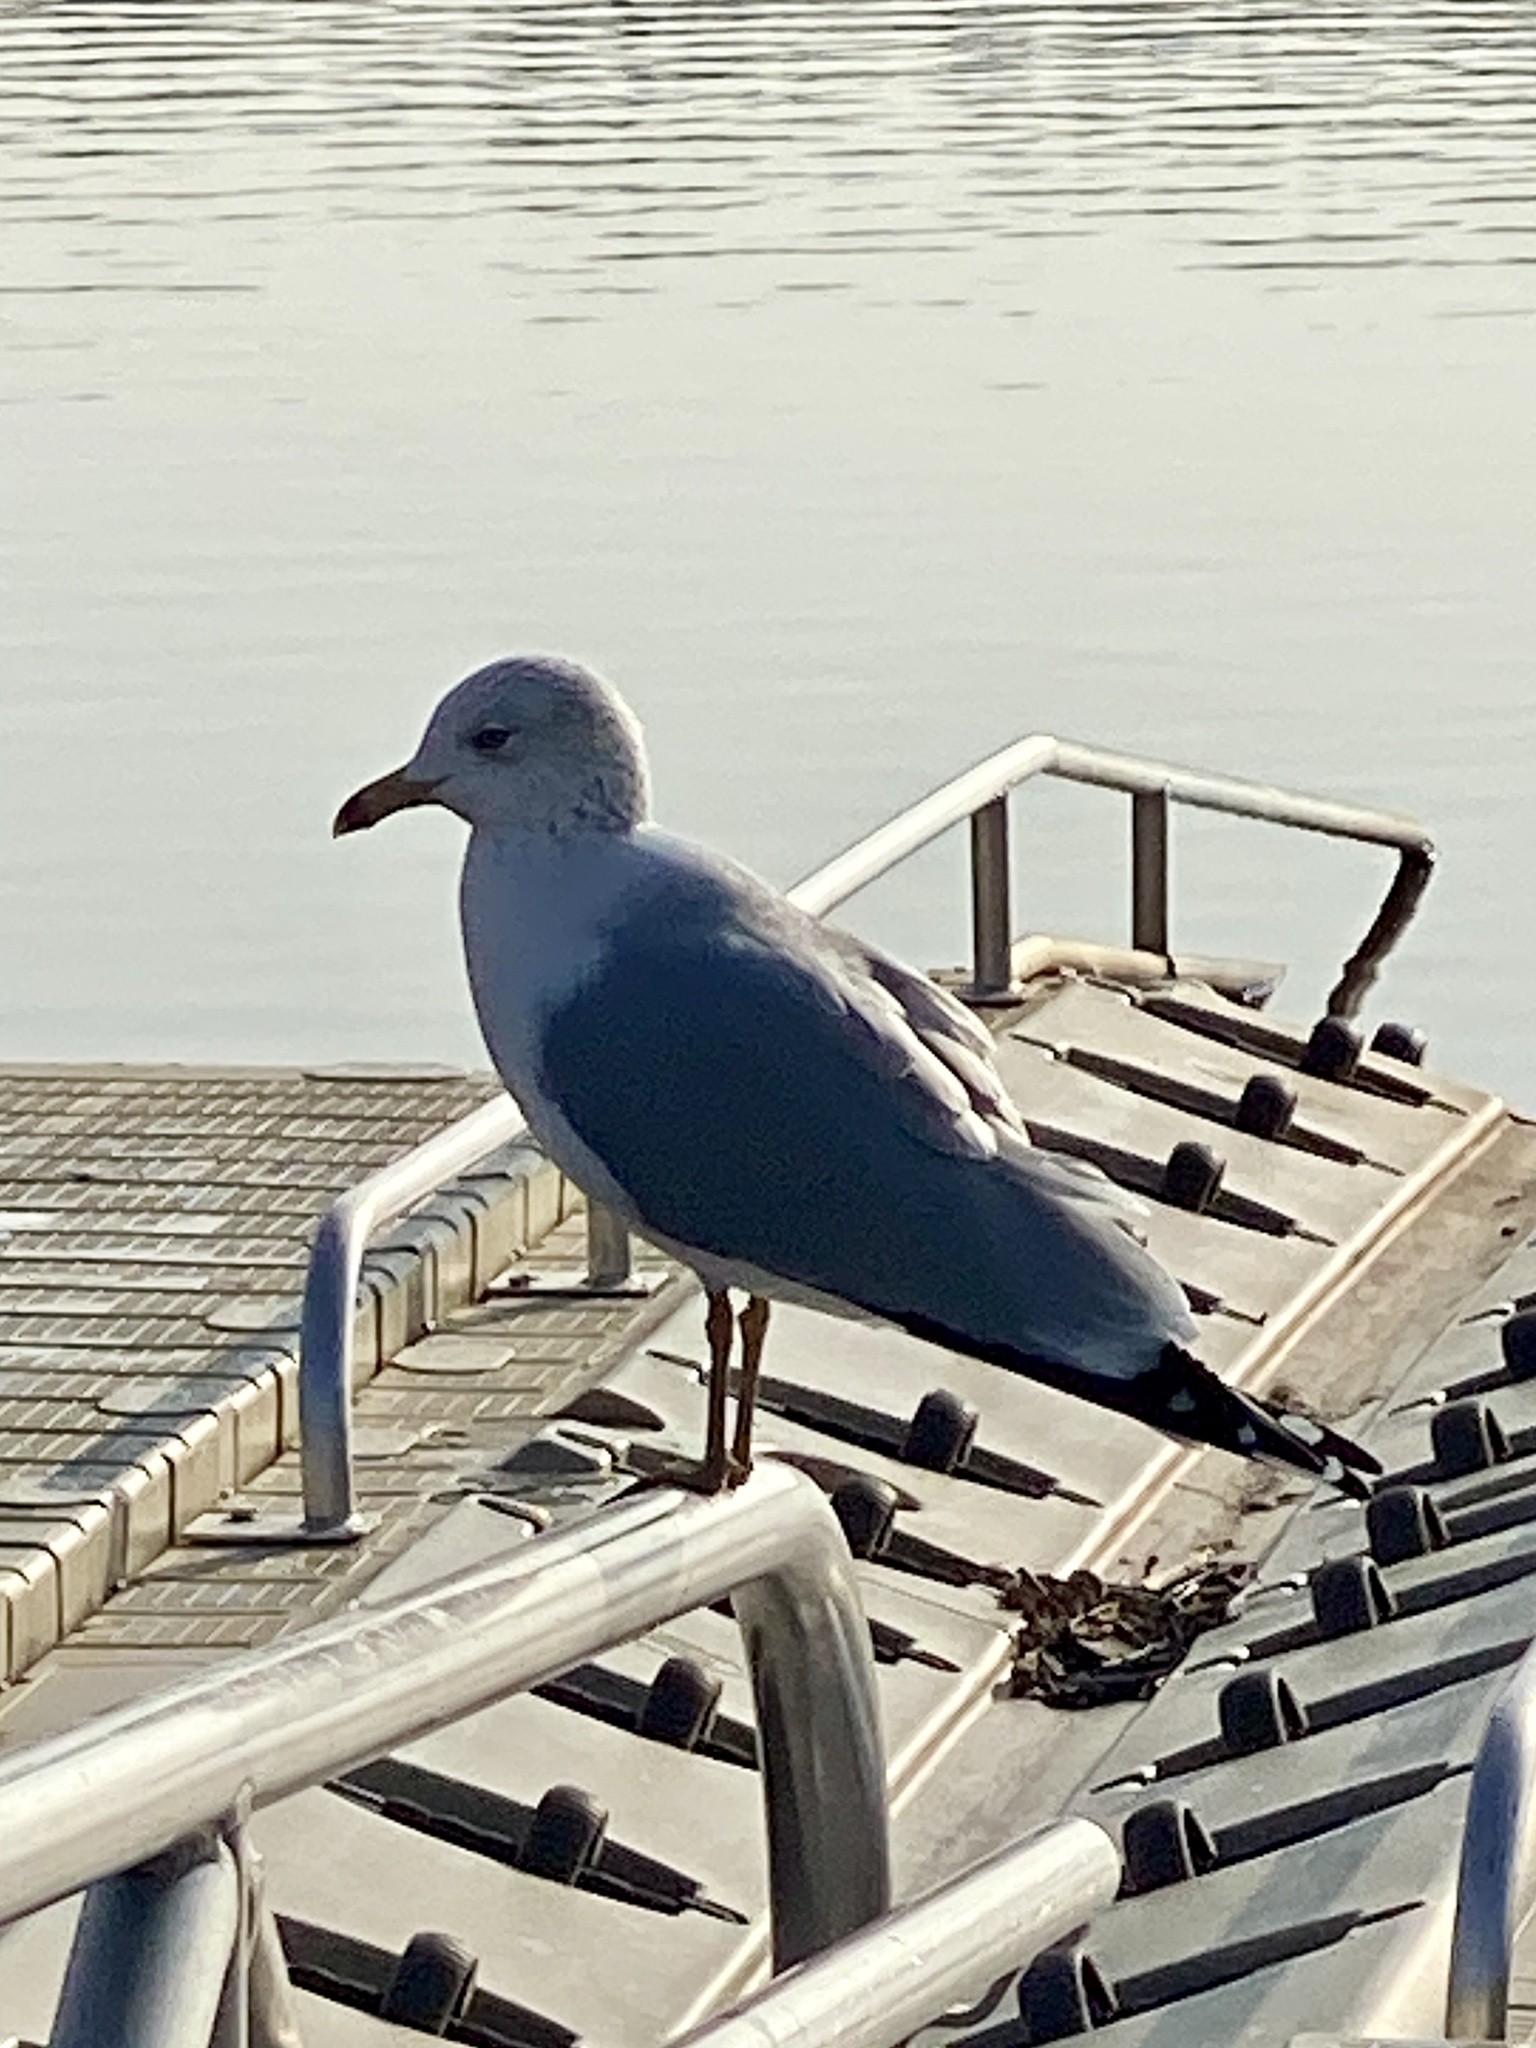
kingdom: Animalia
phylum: Chordata
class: Aves
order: Charadriiformes
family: Laridae
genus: Larus
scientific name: Larus delawarensis
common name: Ring-billed gull
